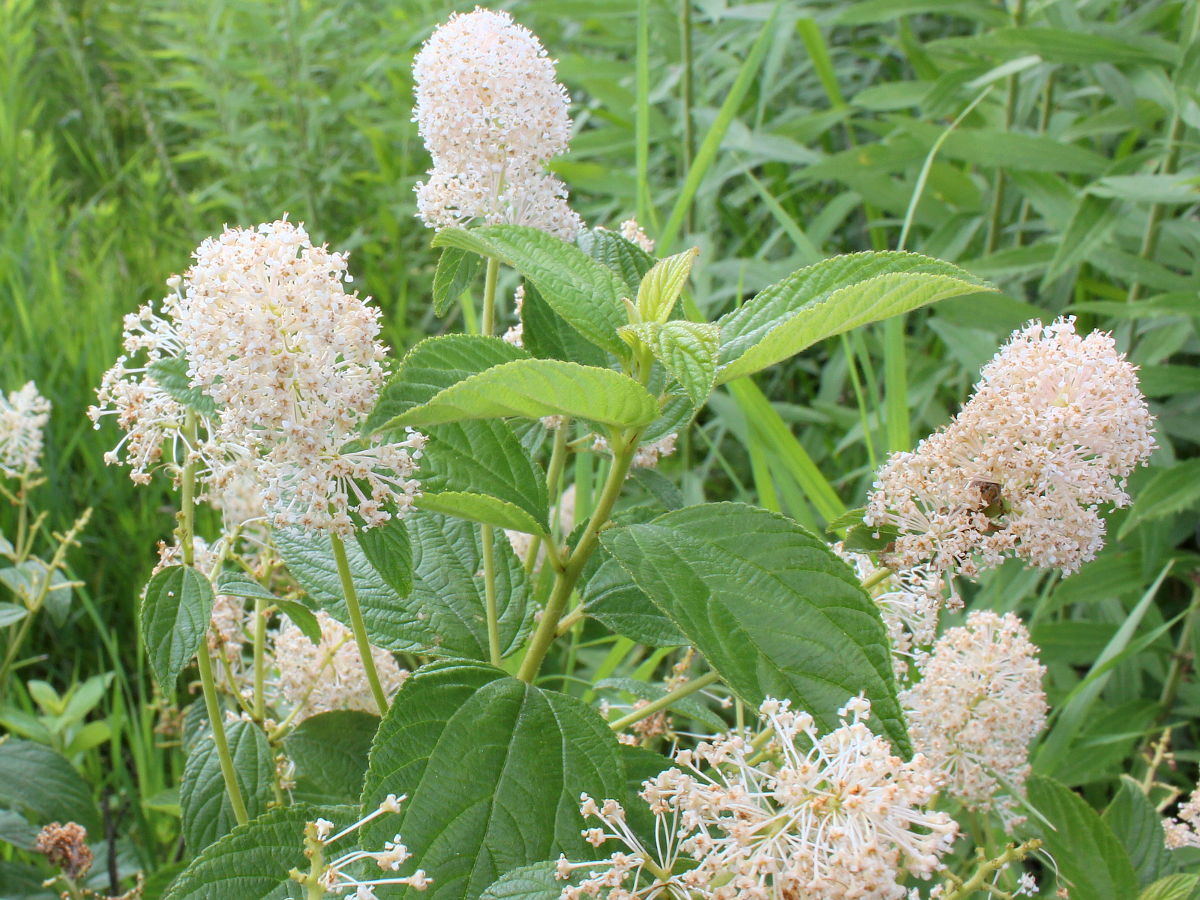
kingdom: Plantae
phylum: Tracheophyta
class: Magnoliopsida
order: Rosales
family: Rhamnaceae
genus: Ceanothus
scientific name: Ceanothus americanus
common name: Redroot
